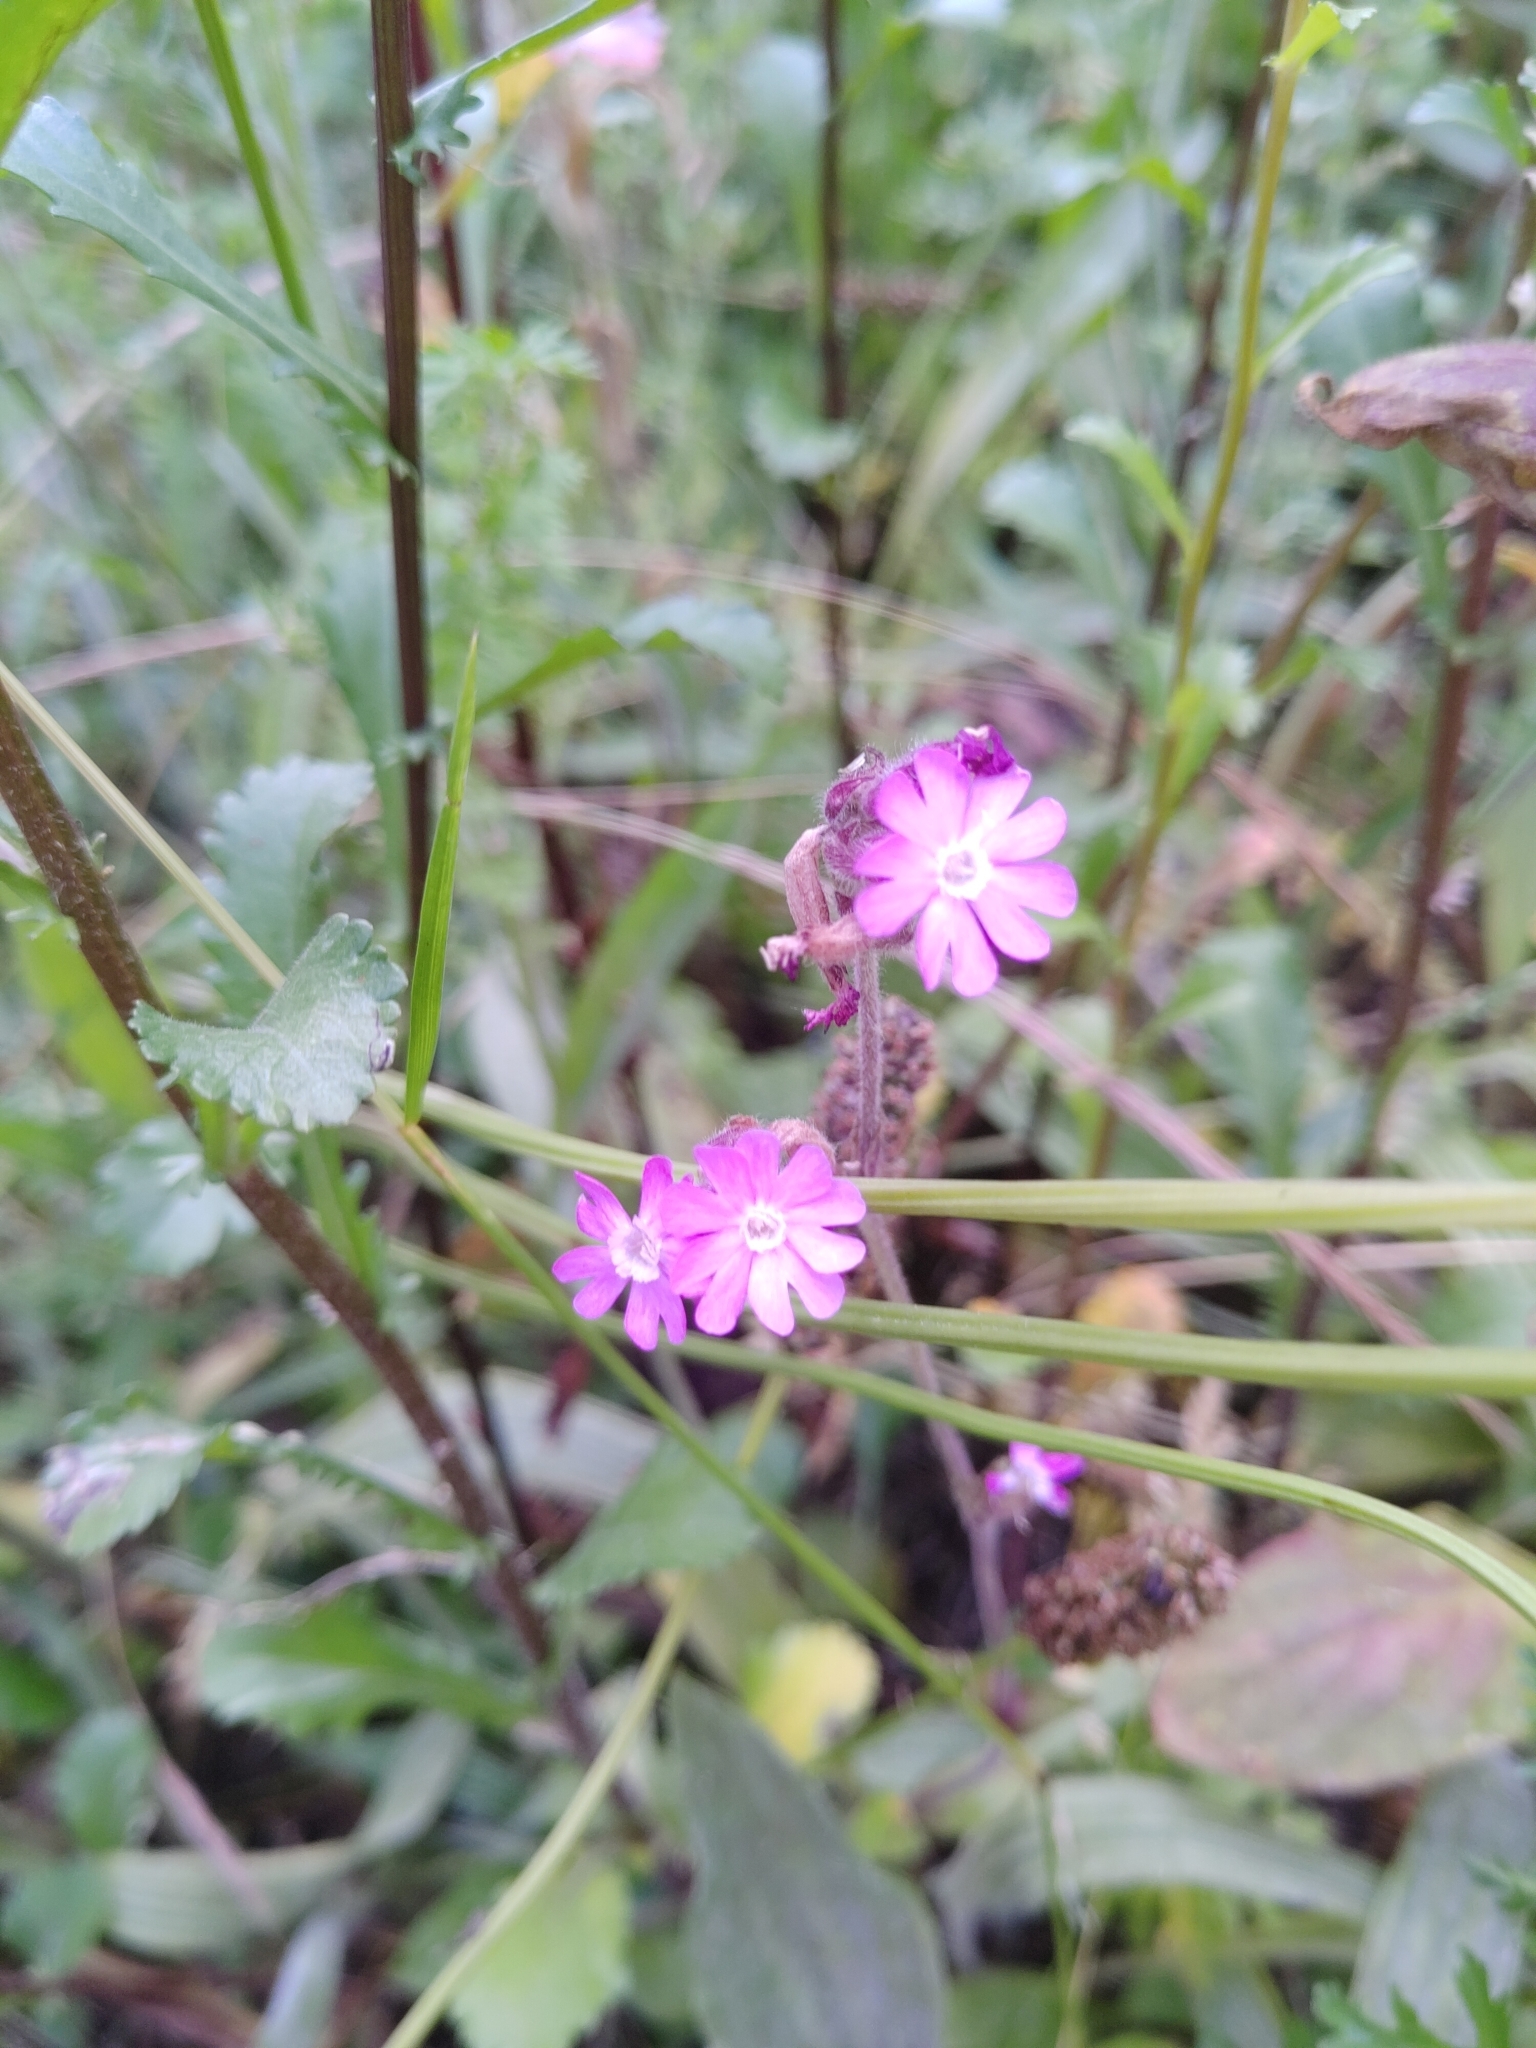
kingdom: Plantae
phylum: Tracheophyta
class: Magnoliopsida
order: Caryophyllales
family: Caryophyllaceae
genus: Silene
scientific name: Silene dioica
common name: Red campion
